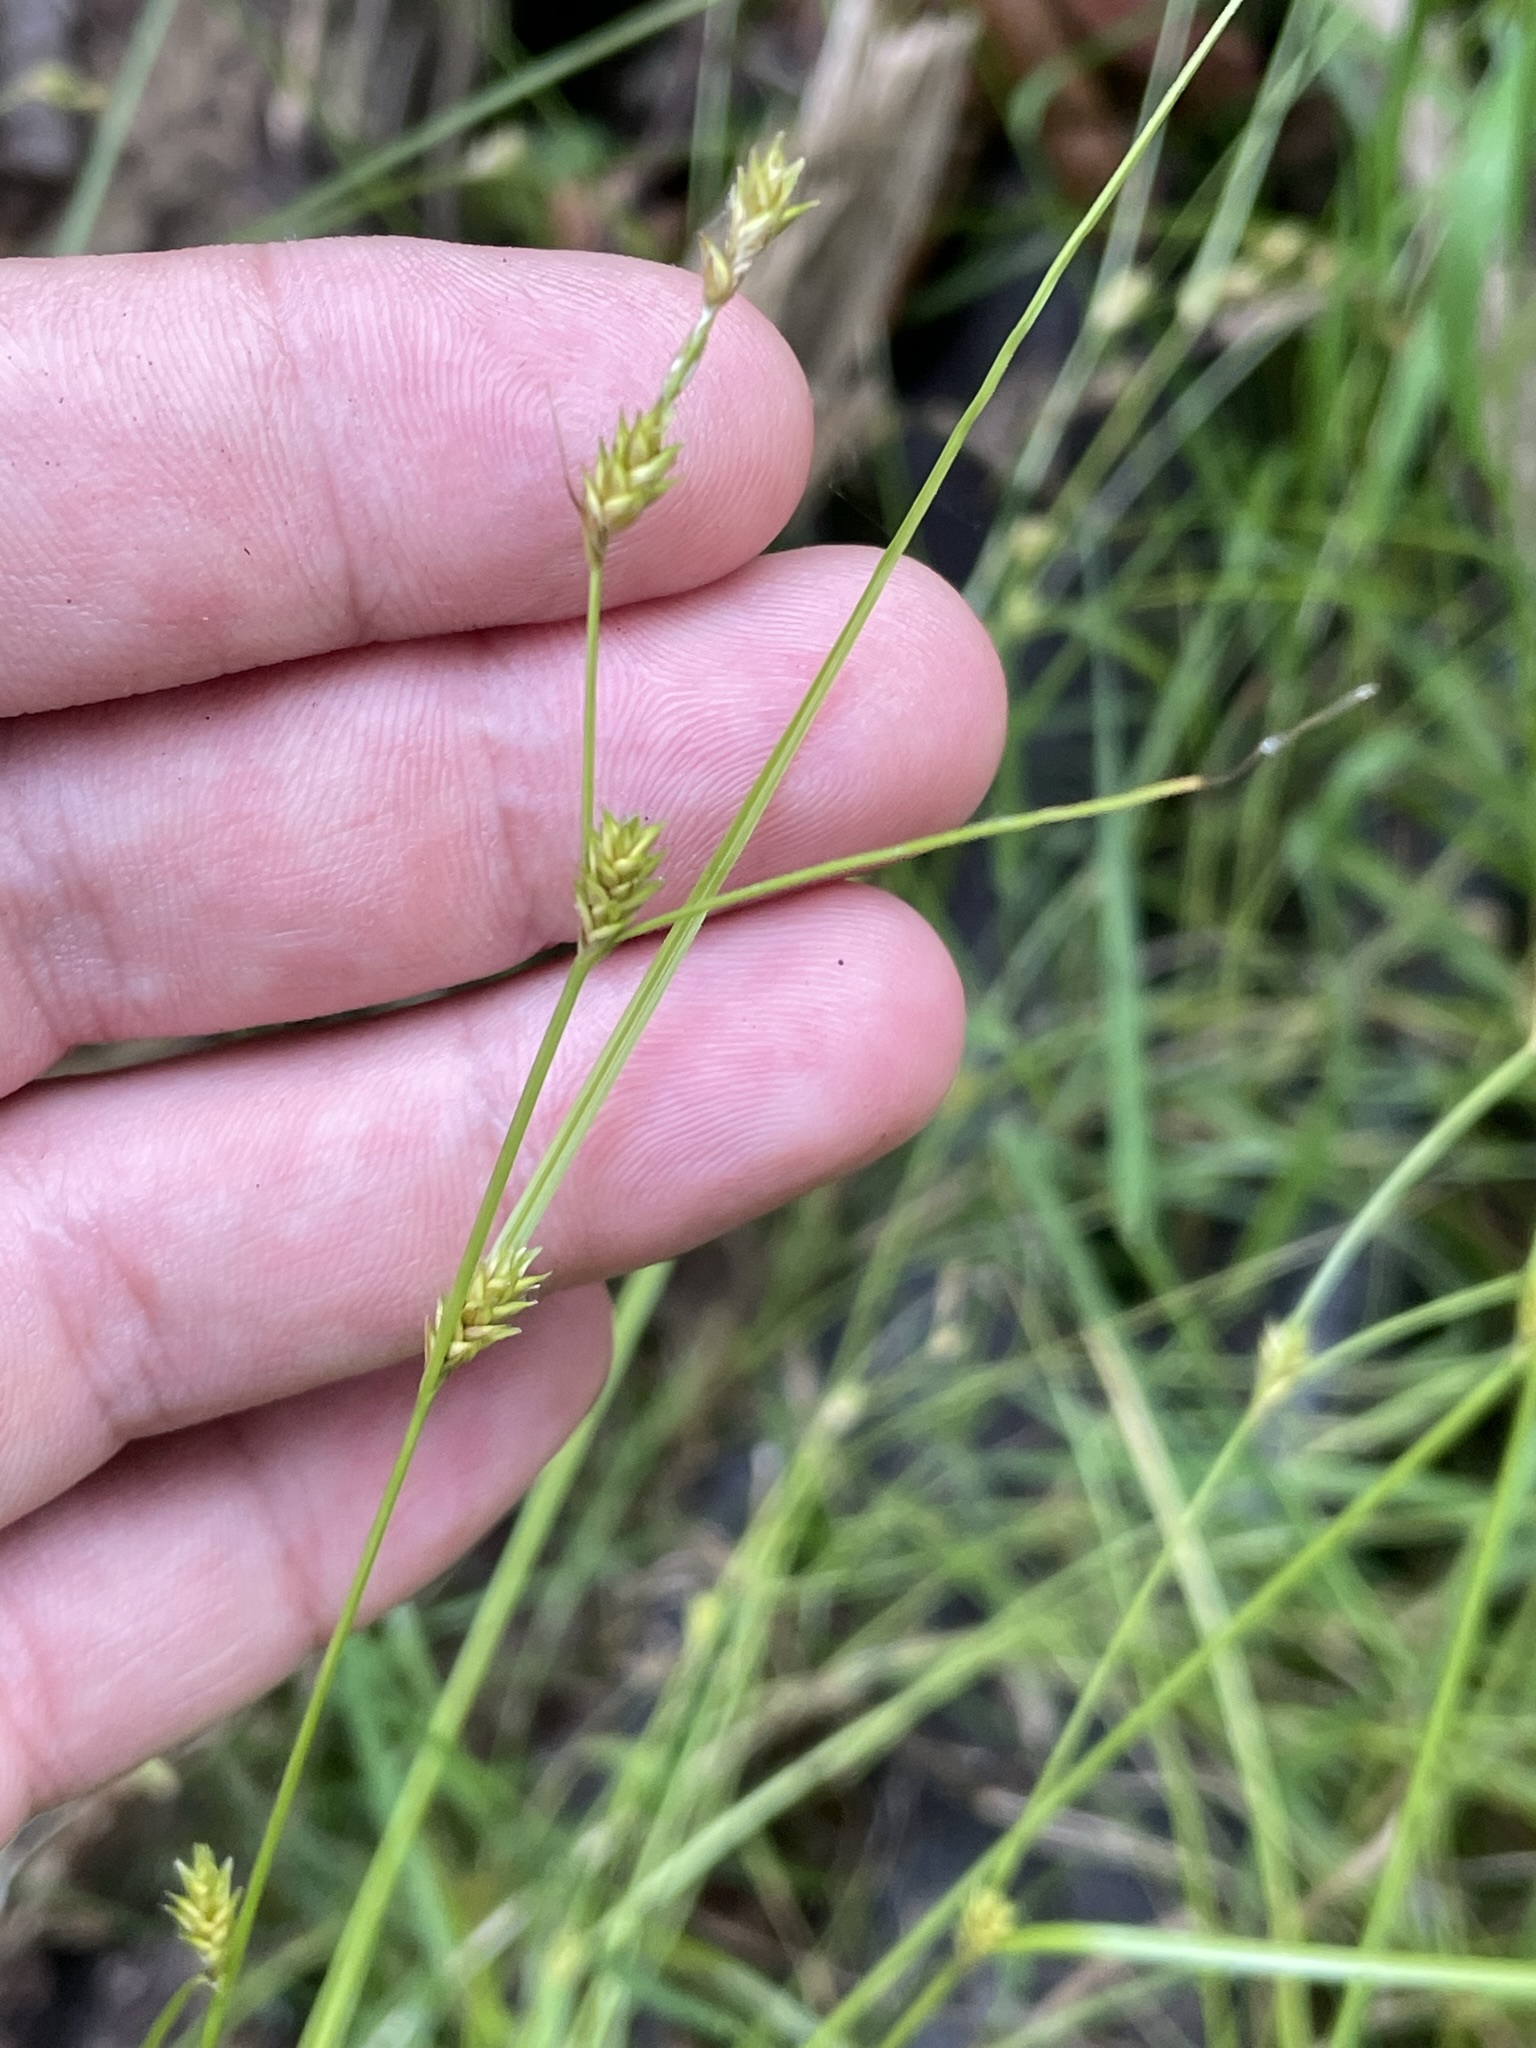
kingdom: Plantae
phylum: Tracheophyta
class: Liliopsida
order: Poales
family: Cyperaceae
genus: Carex
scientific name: Carex remota
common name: Remote sedge
